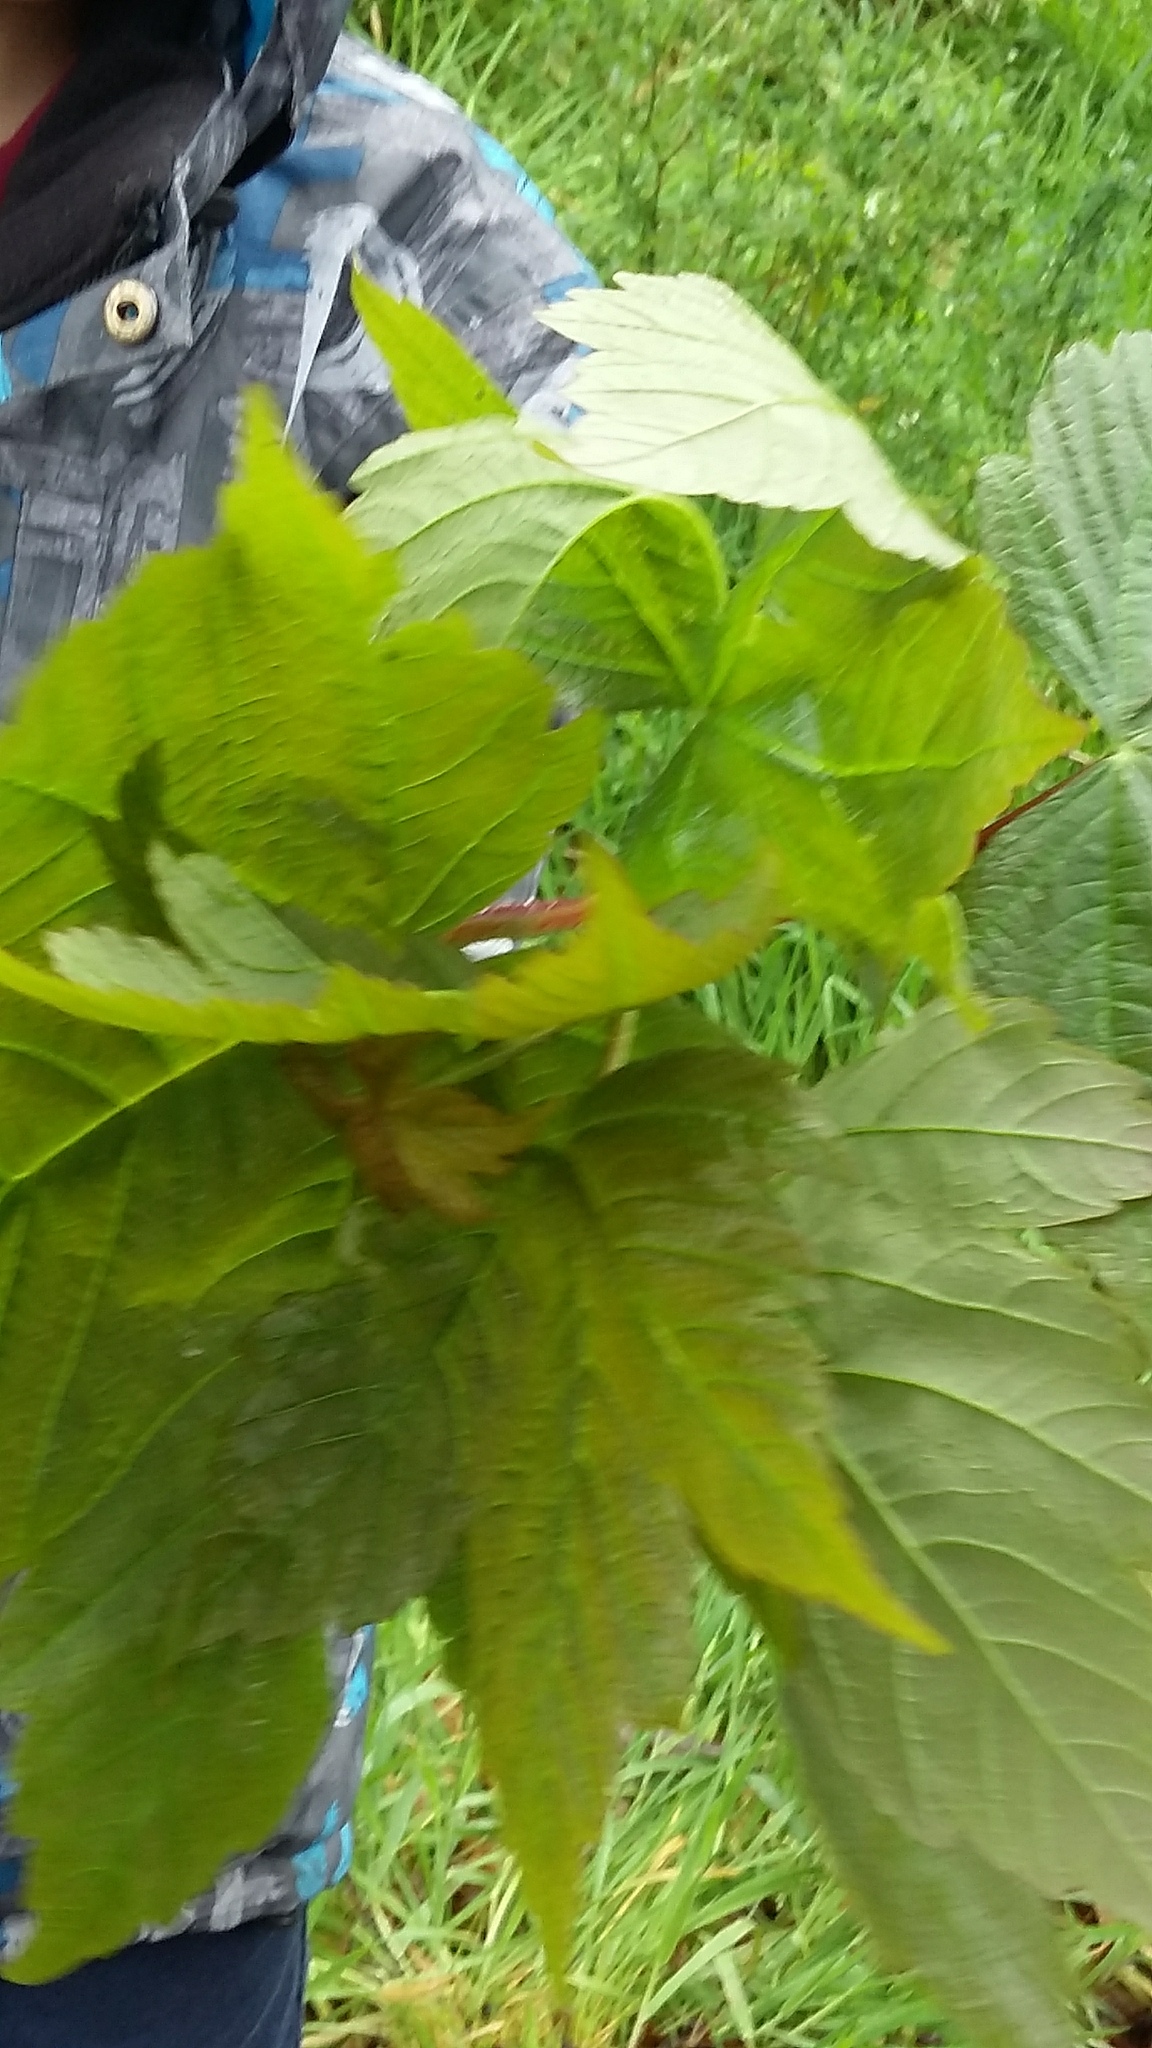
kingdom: Plantae
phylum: Tracheophyta
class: Magnoliopsida
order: Sapindales
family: Sapindaceae
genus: Acer
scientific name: Acer pseudoplatanus
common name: Sycamore
